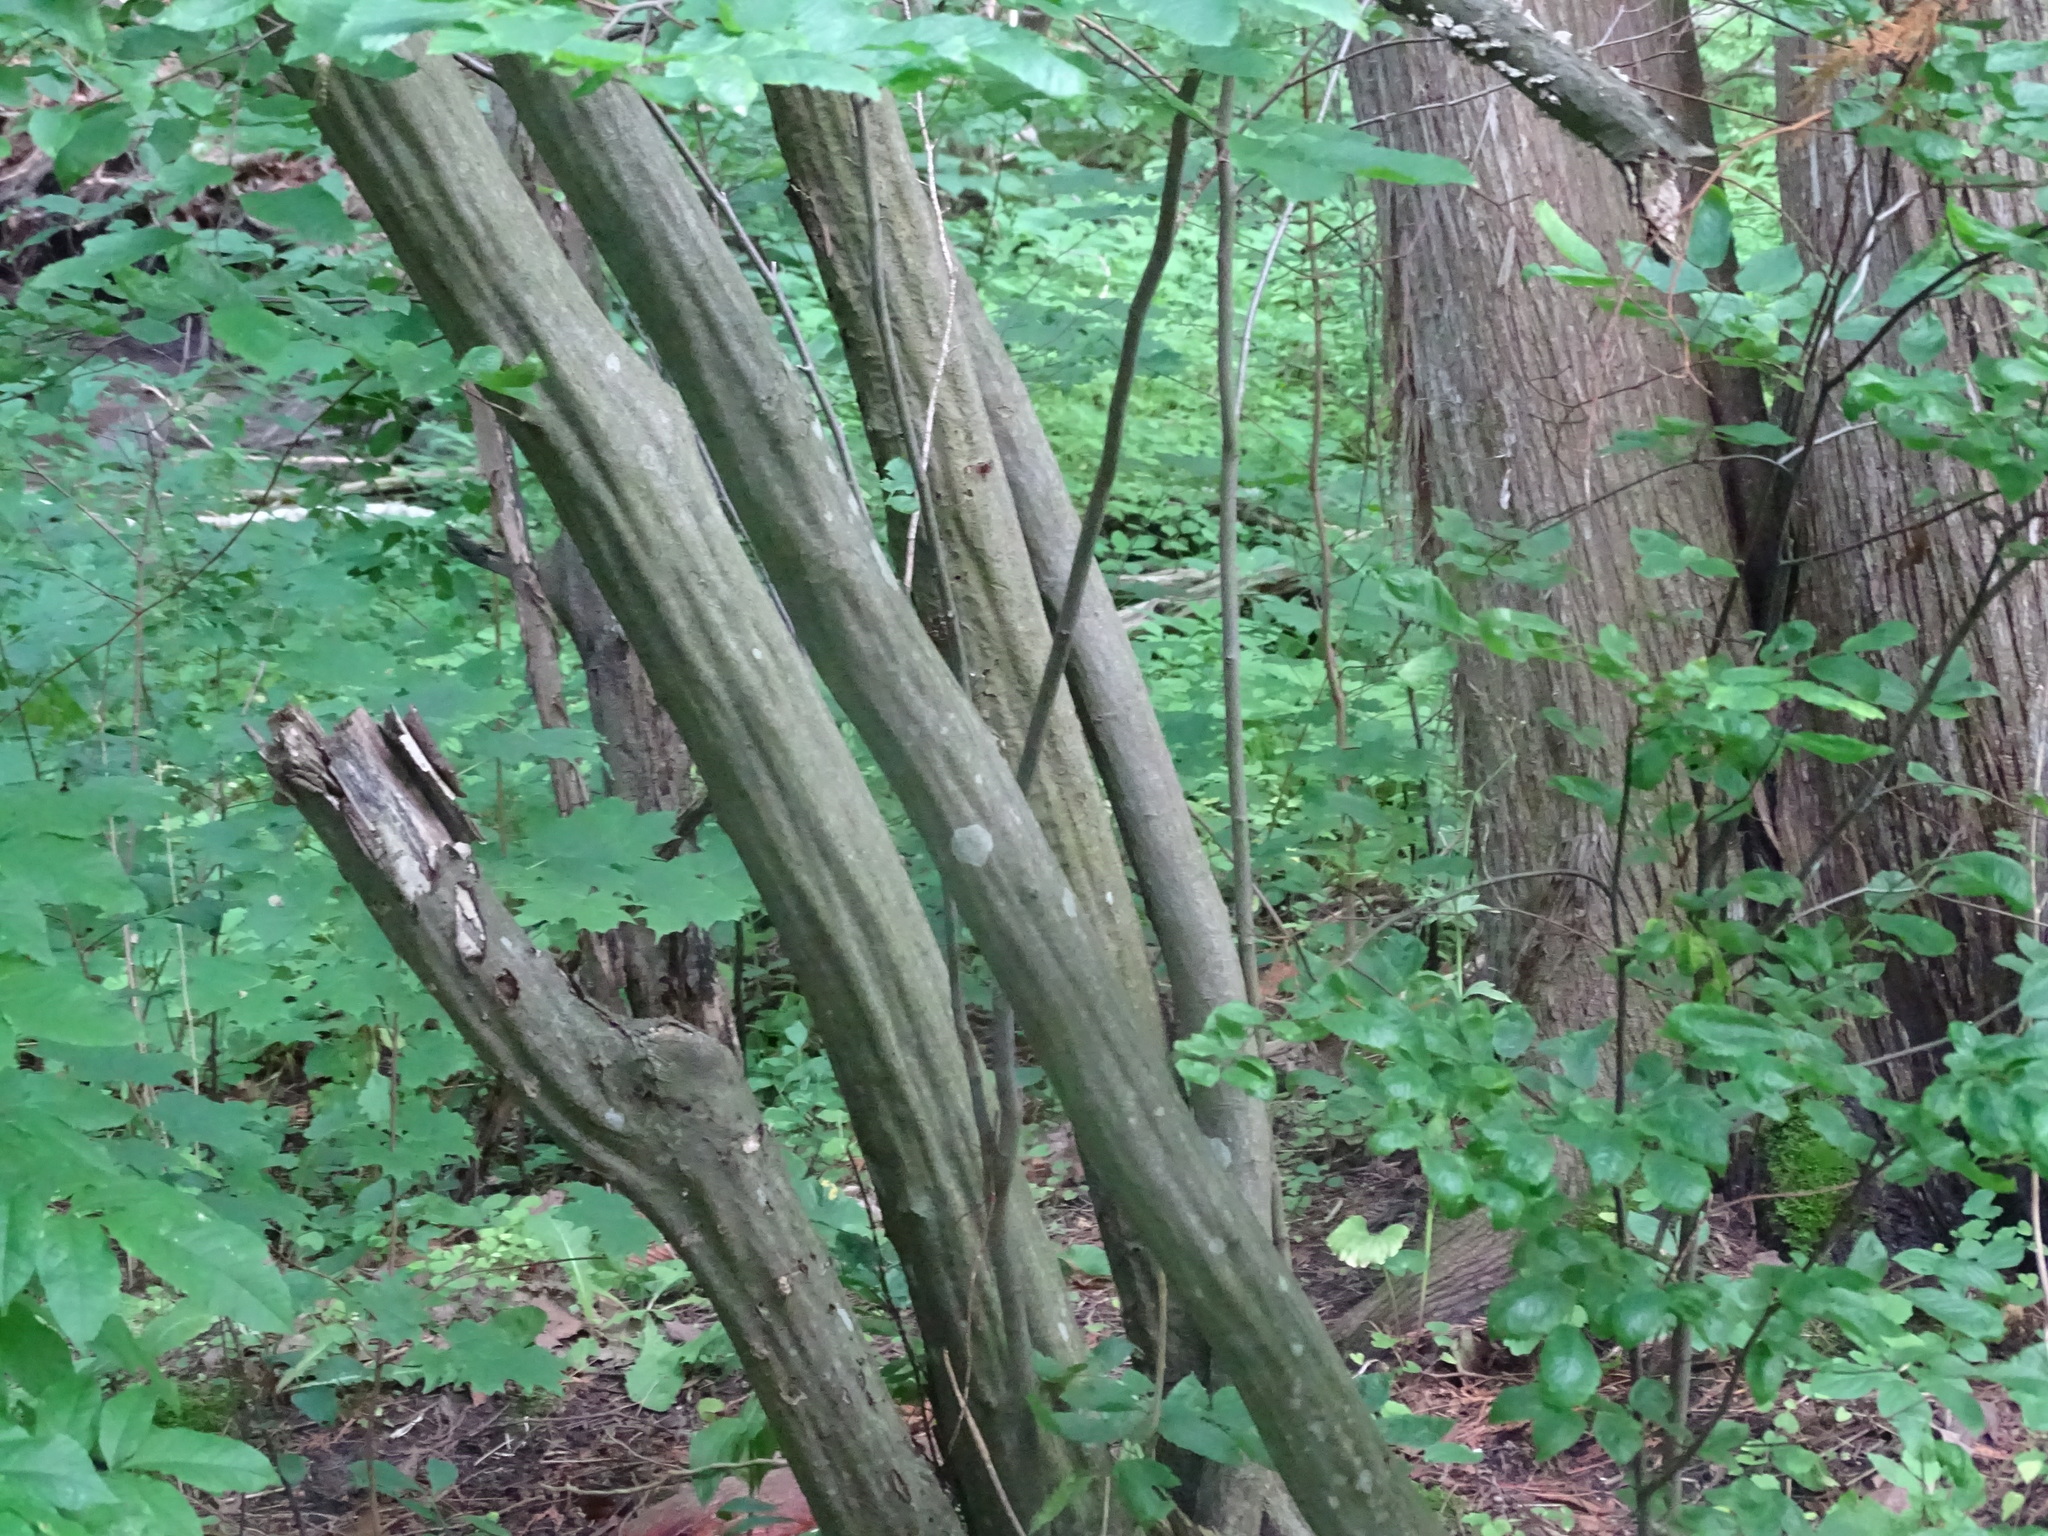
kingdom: Plantae
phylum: Tracheophyta
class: Magnoliopsida
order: Fagales
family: Betulaceae
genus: Carpinus
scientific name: Carpinus caroliniana
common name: American hornbeam
